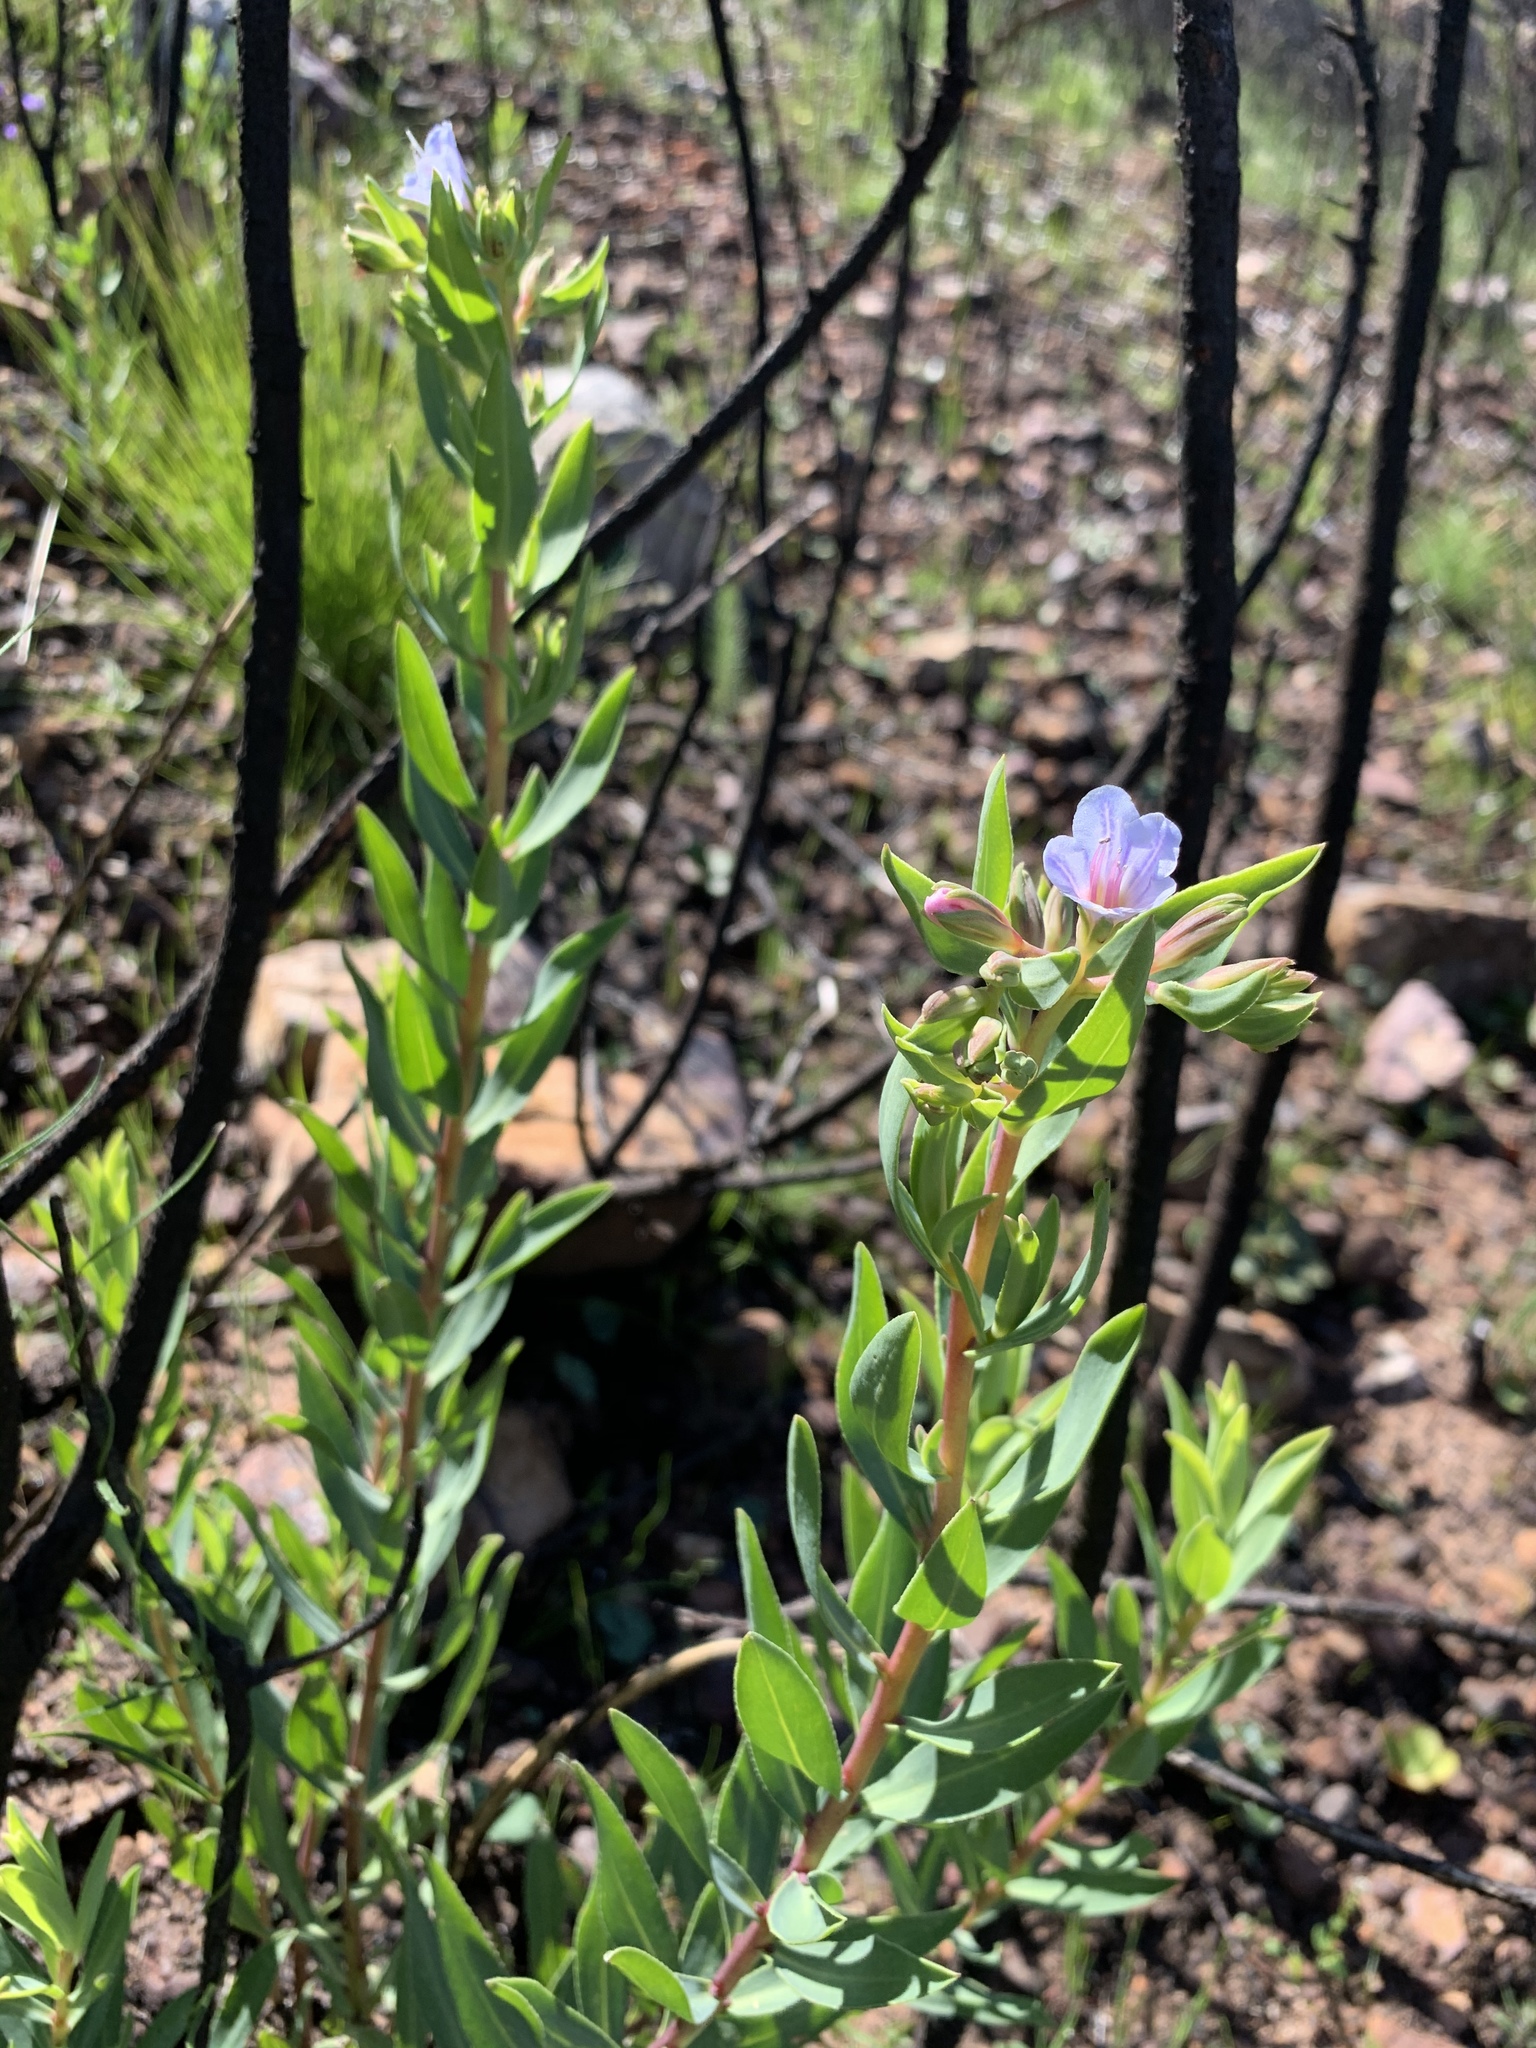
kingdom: Plantae
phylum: Tracheophyta
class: Magnoliopsida
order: Boraginales
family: Boraginaceae
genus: Lobostemon
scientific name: Lobostemon glaucophyllus
